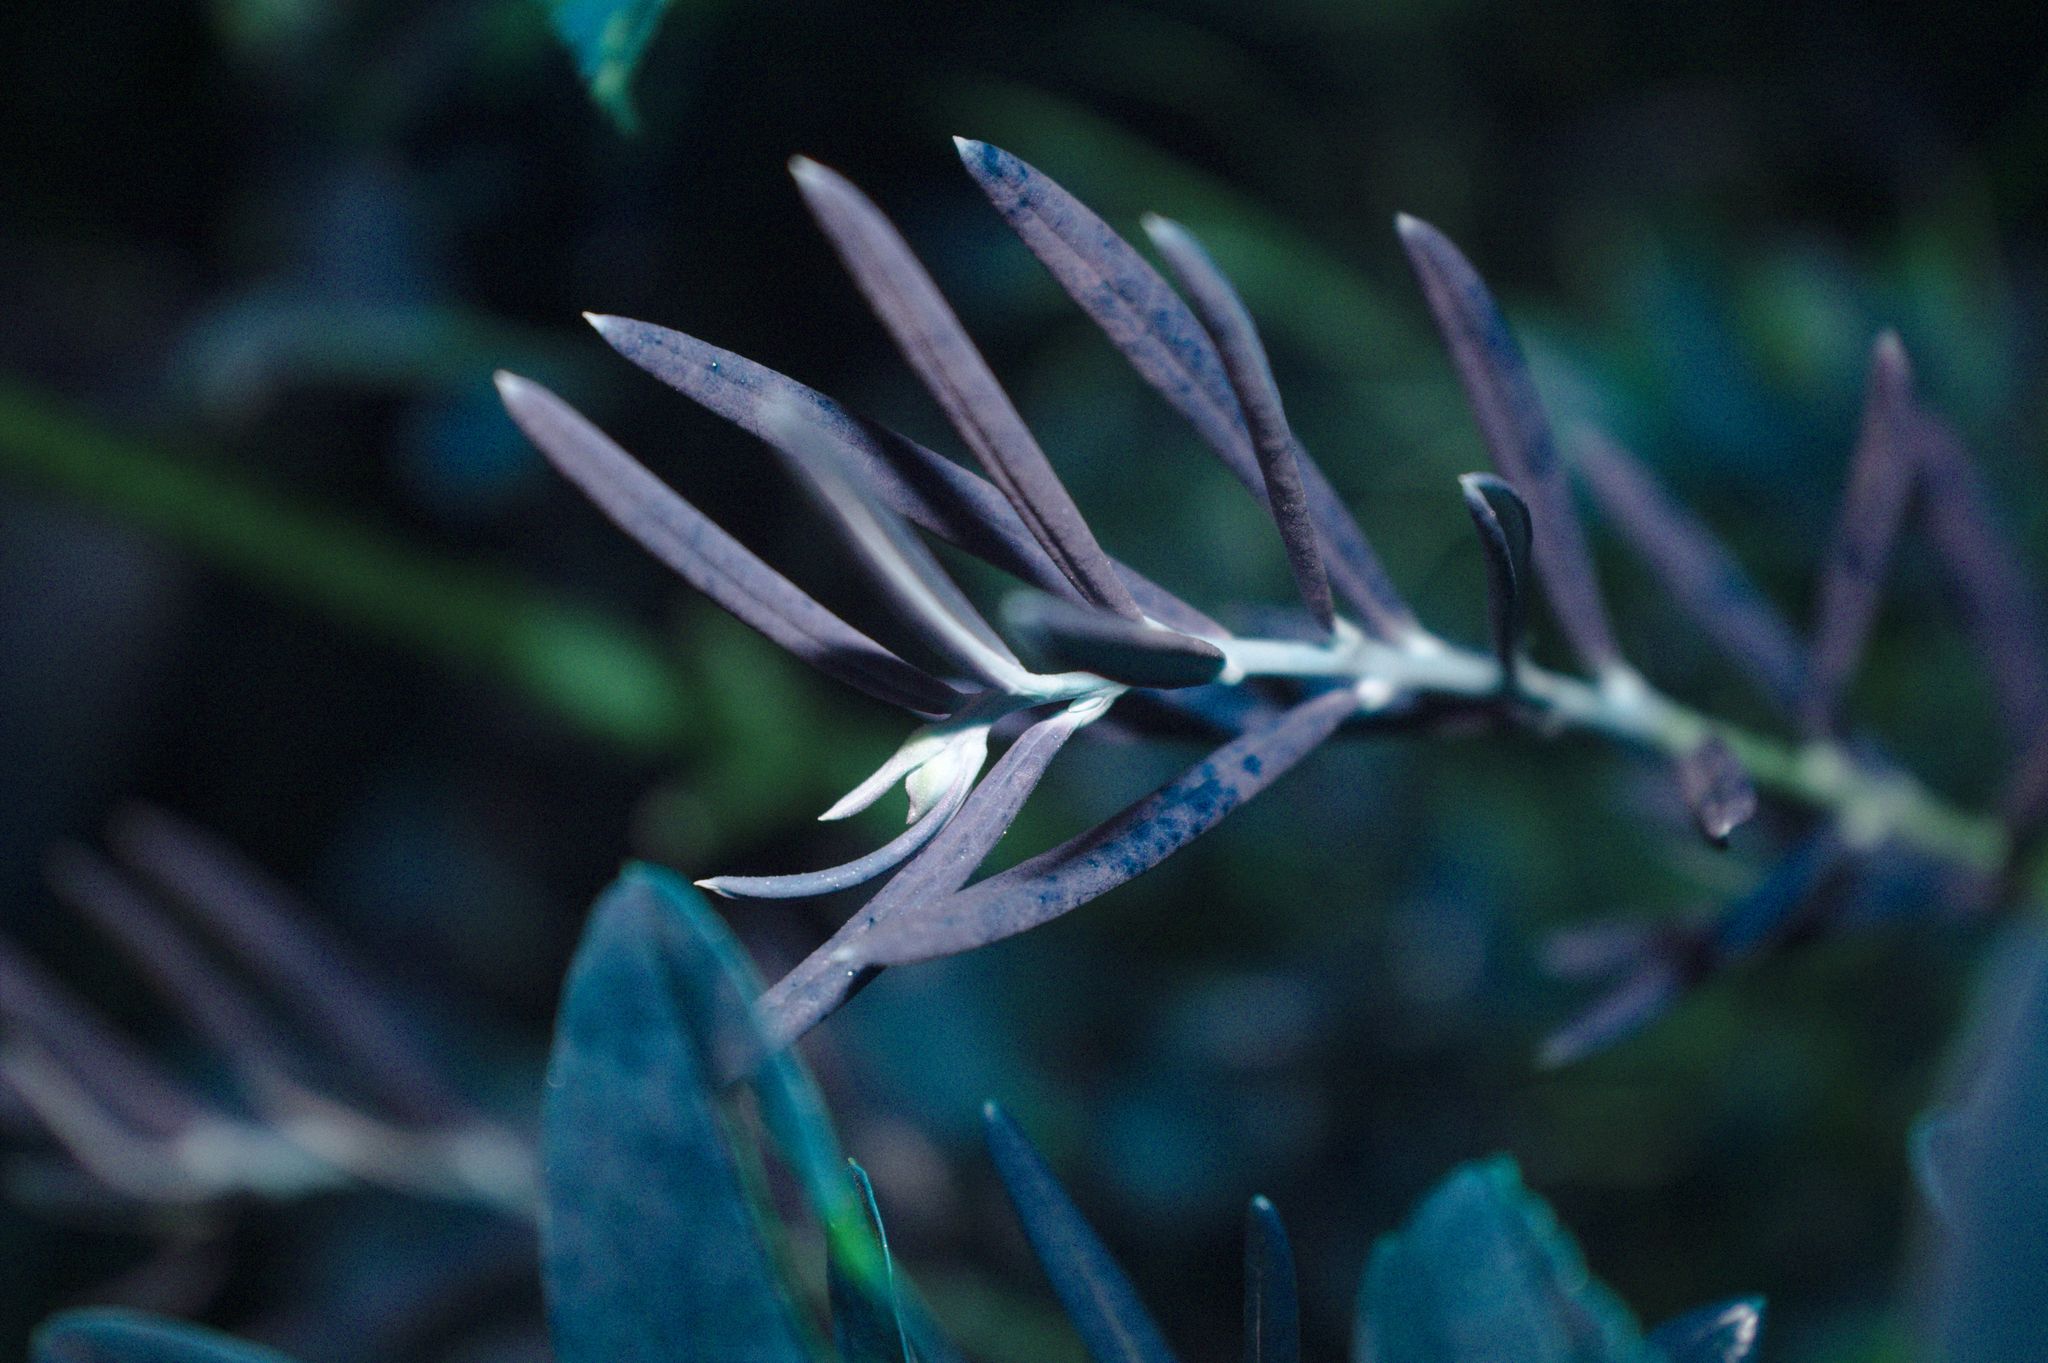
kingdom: Plantae
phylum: Tracheophyta
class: Magnoliopsida
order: Ericales
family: Ericaceae
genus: Andromeda
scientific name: Andromeda polifolia
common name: Bog-rosemary
